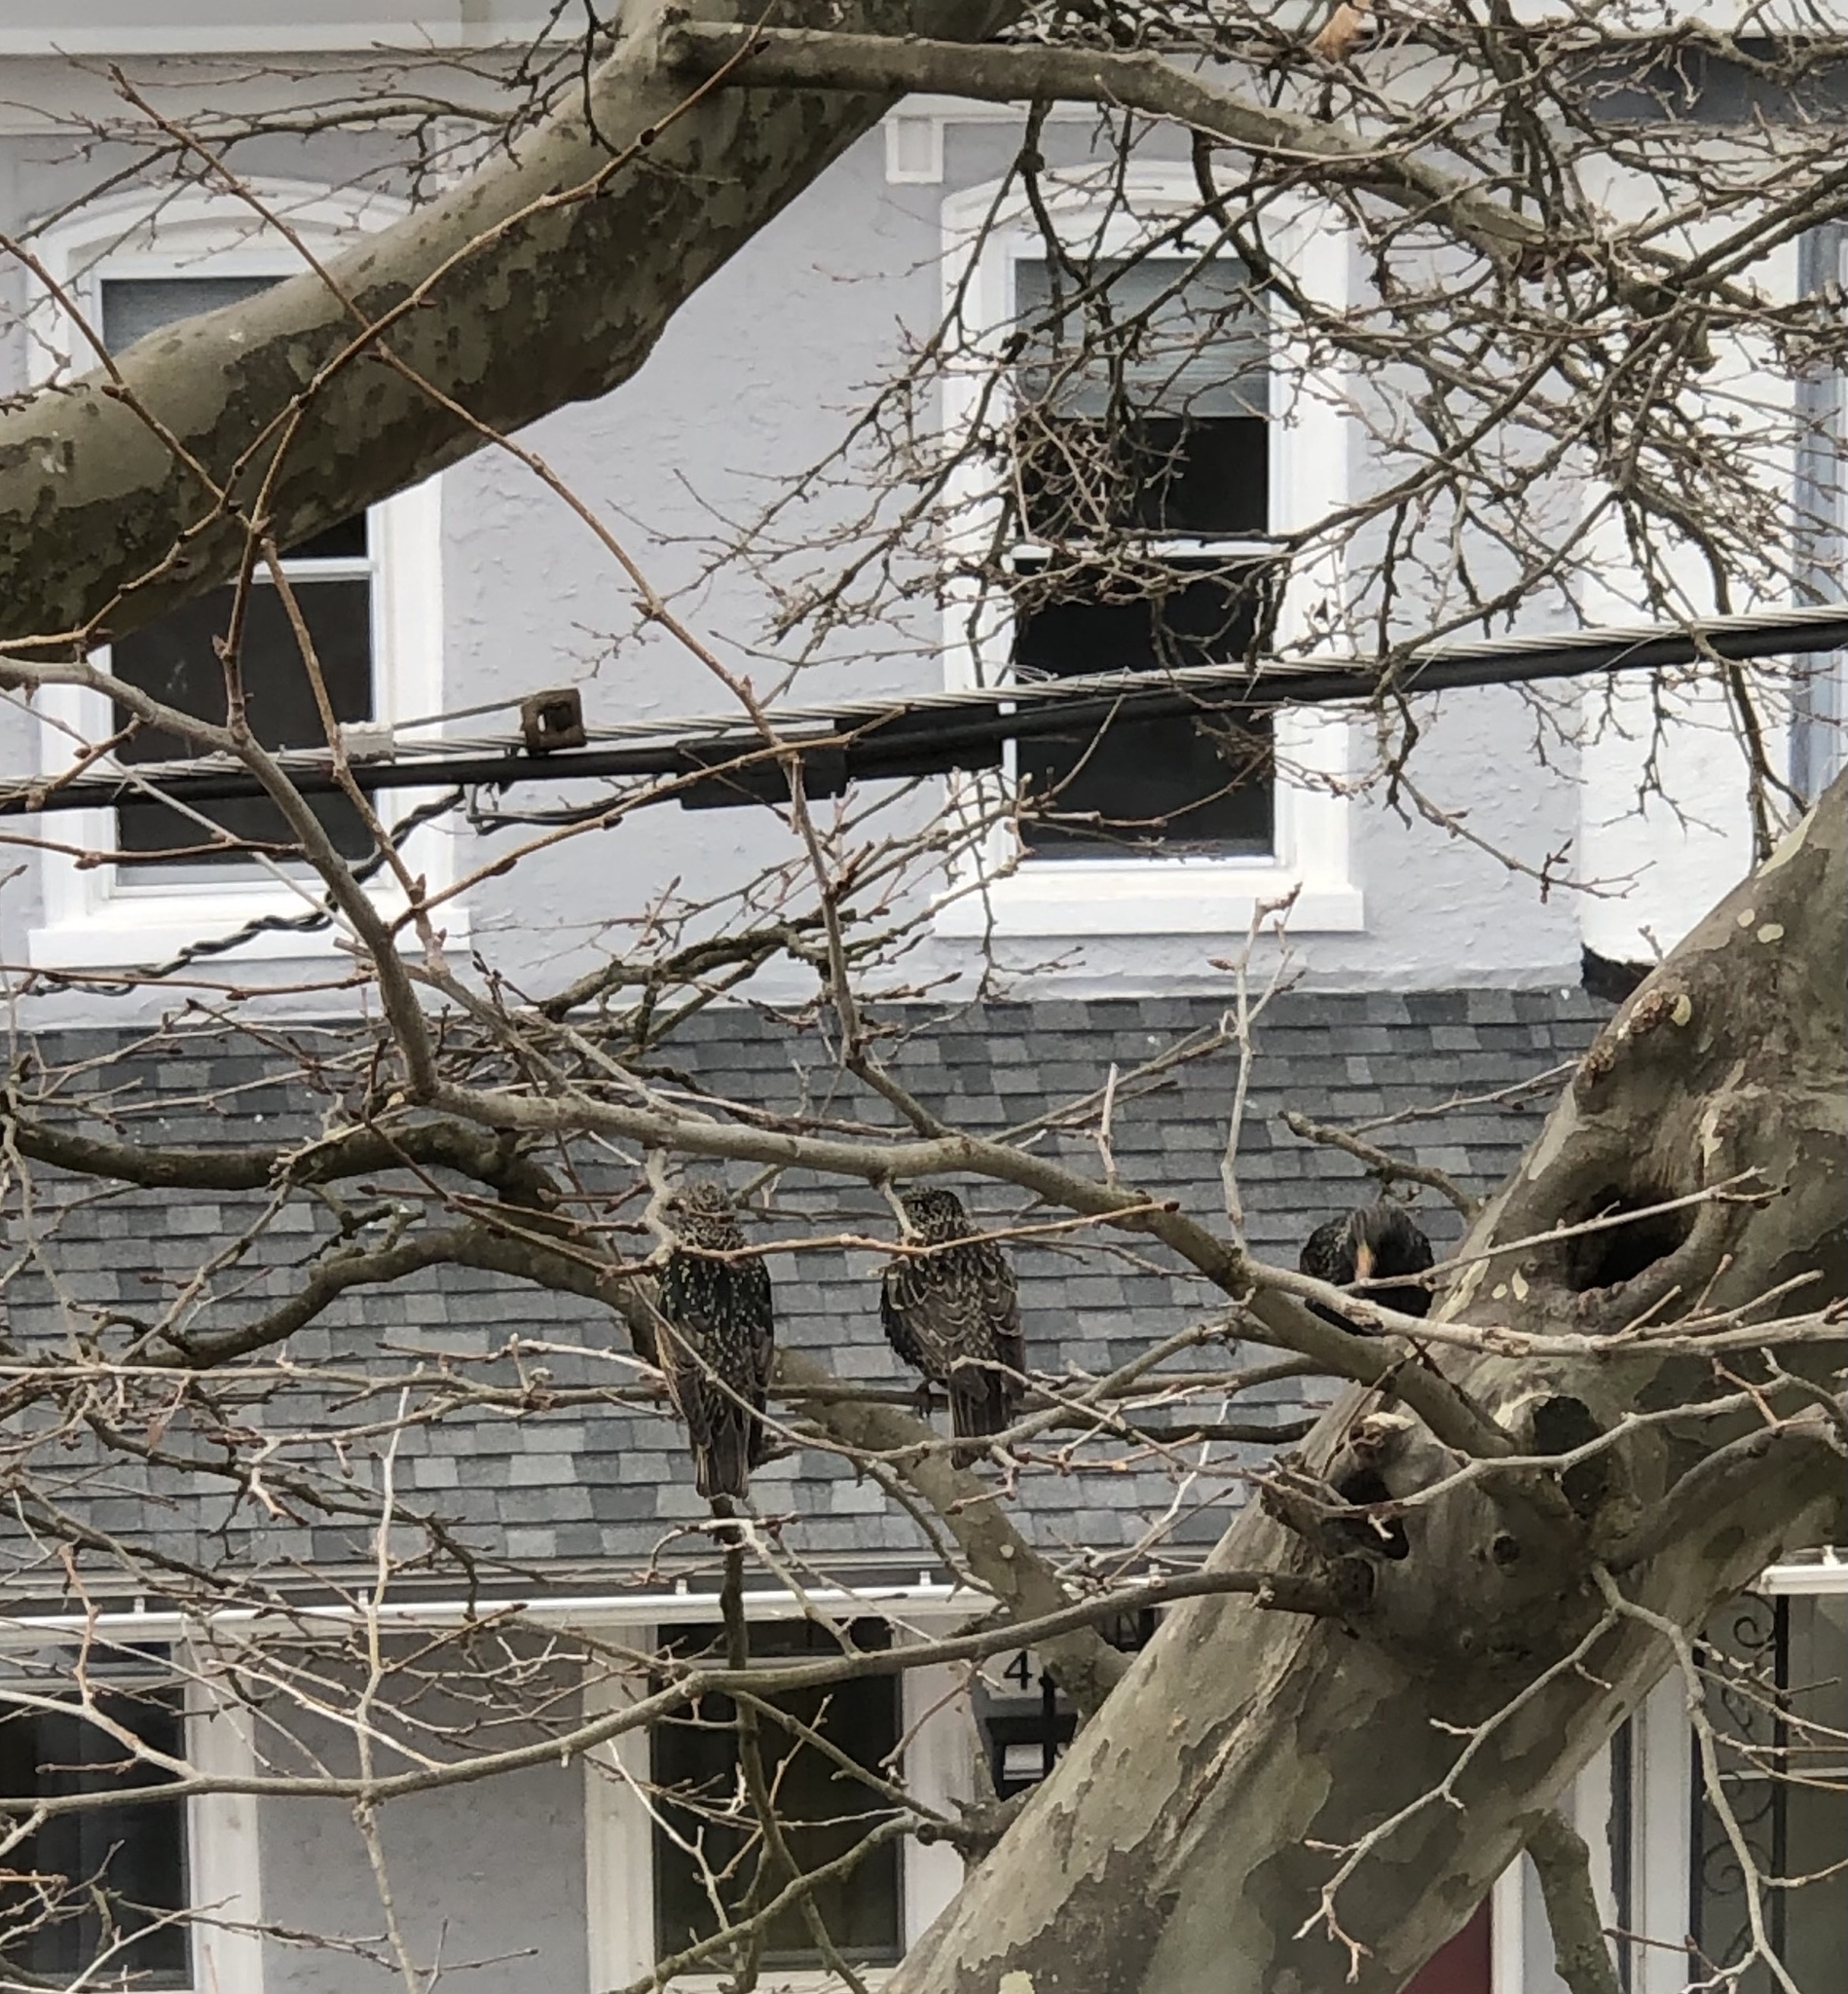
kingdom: Animalia
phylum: Chordata
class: Aves
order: Passeriformes
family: Sturnidae
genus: Sturnus
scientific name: Sturnus vulgaris
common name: Common starling
